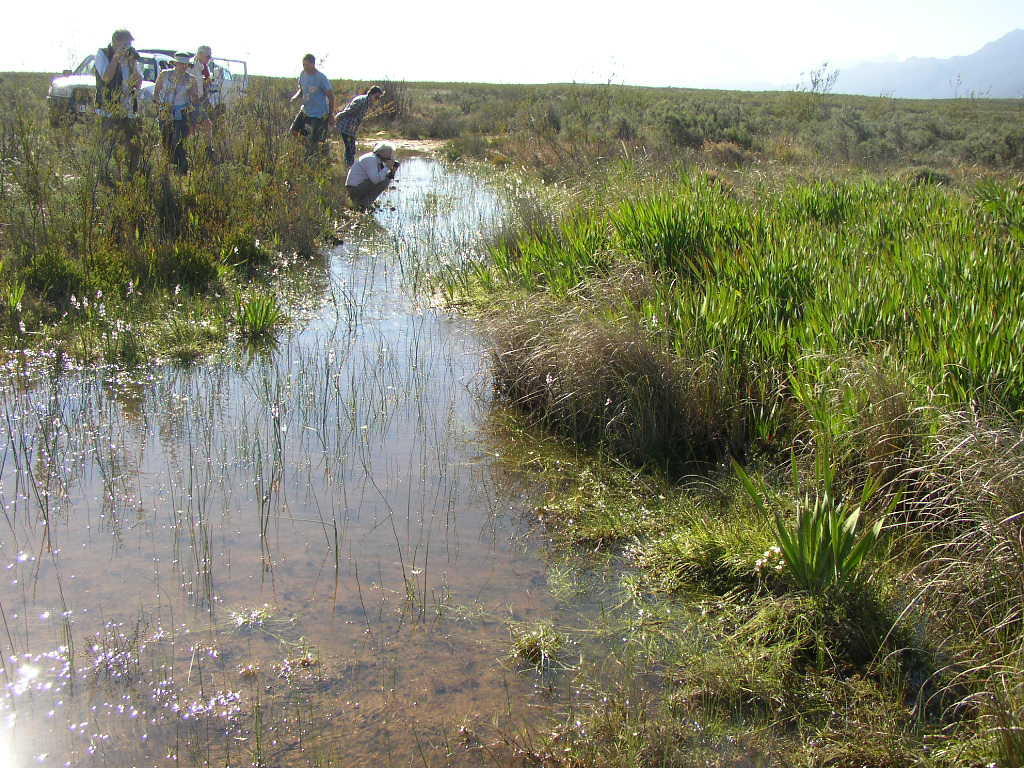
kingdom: Plantae
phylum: Tracheophyta
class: Liliopsida
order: Liliales
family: Colchicaceae
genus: Wurmbea
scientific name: Wurmbea stricta
